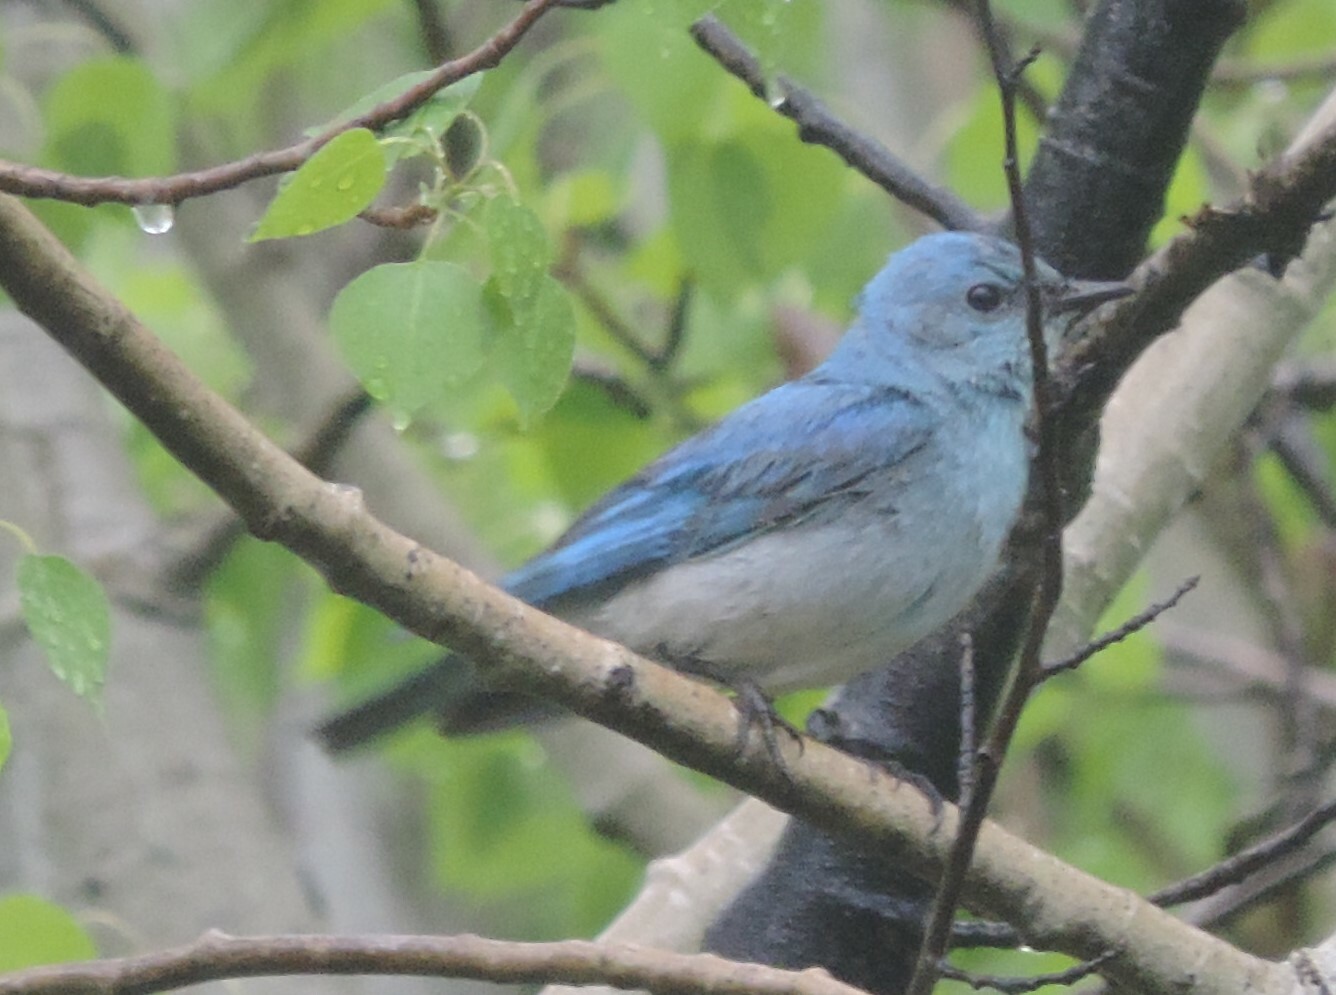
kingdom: Animalia
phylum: Chordata
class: Aves
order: Passeriformes
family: Turdidae
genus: Sialia
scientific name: Sialia currucoides
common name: Mountain bluebird
